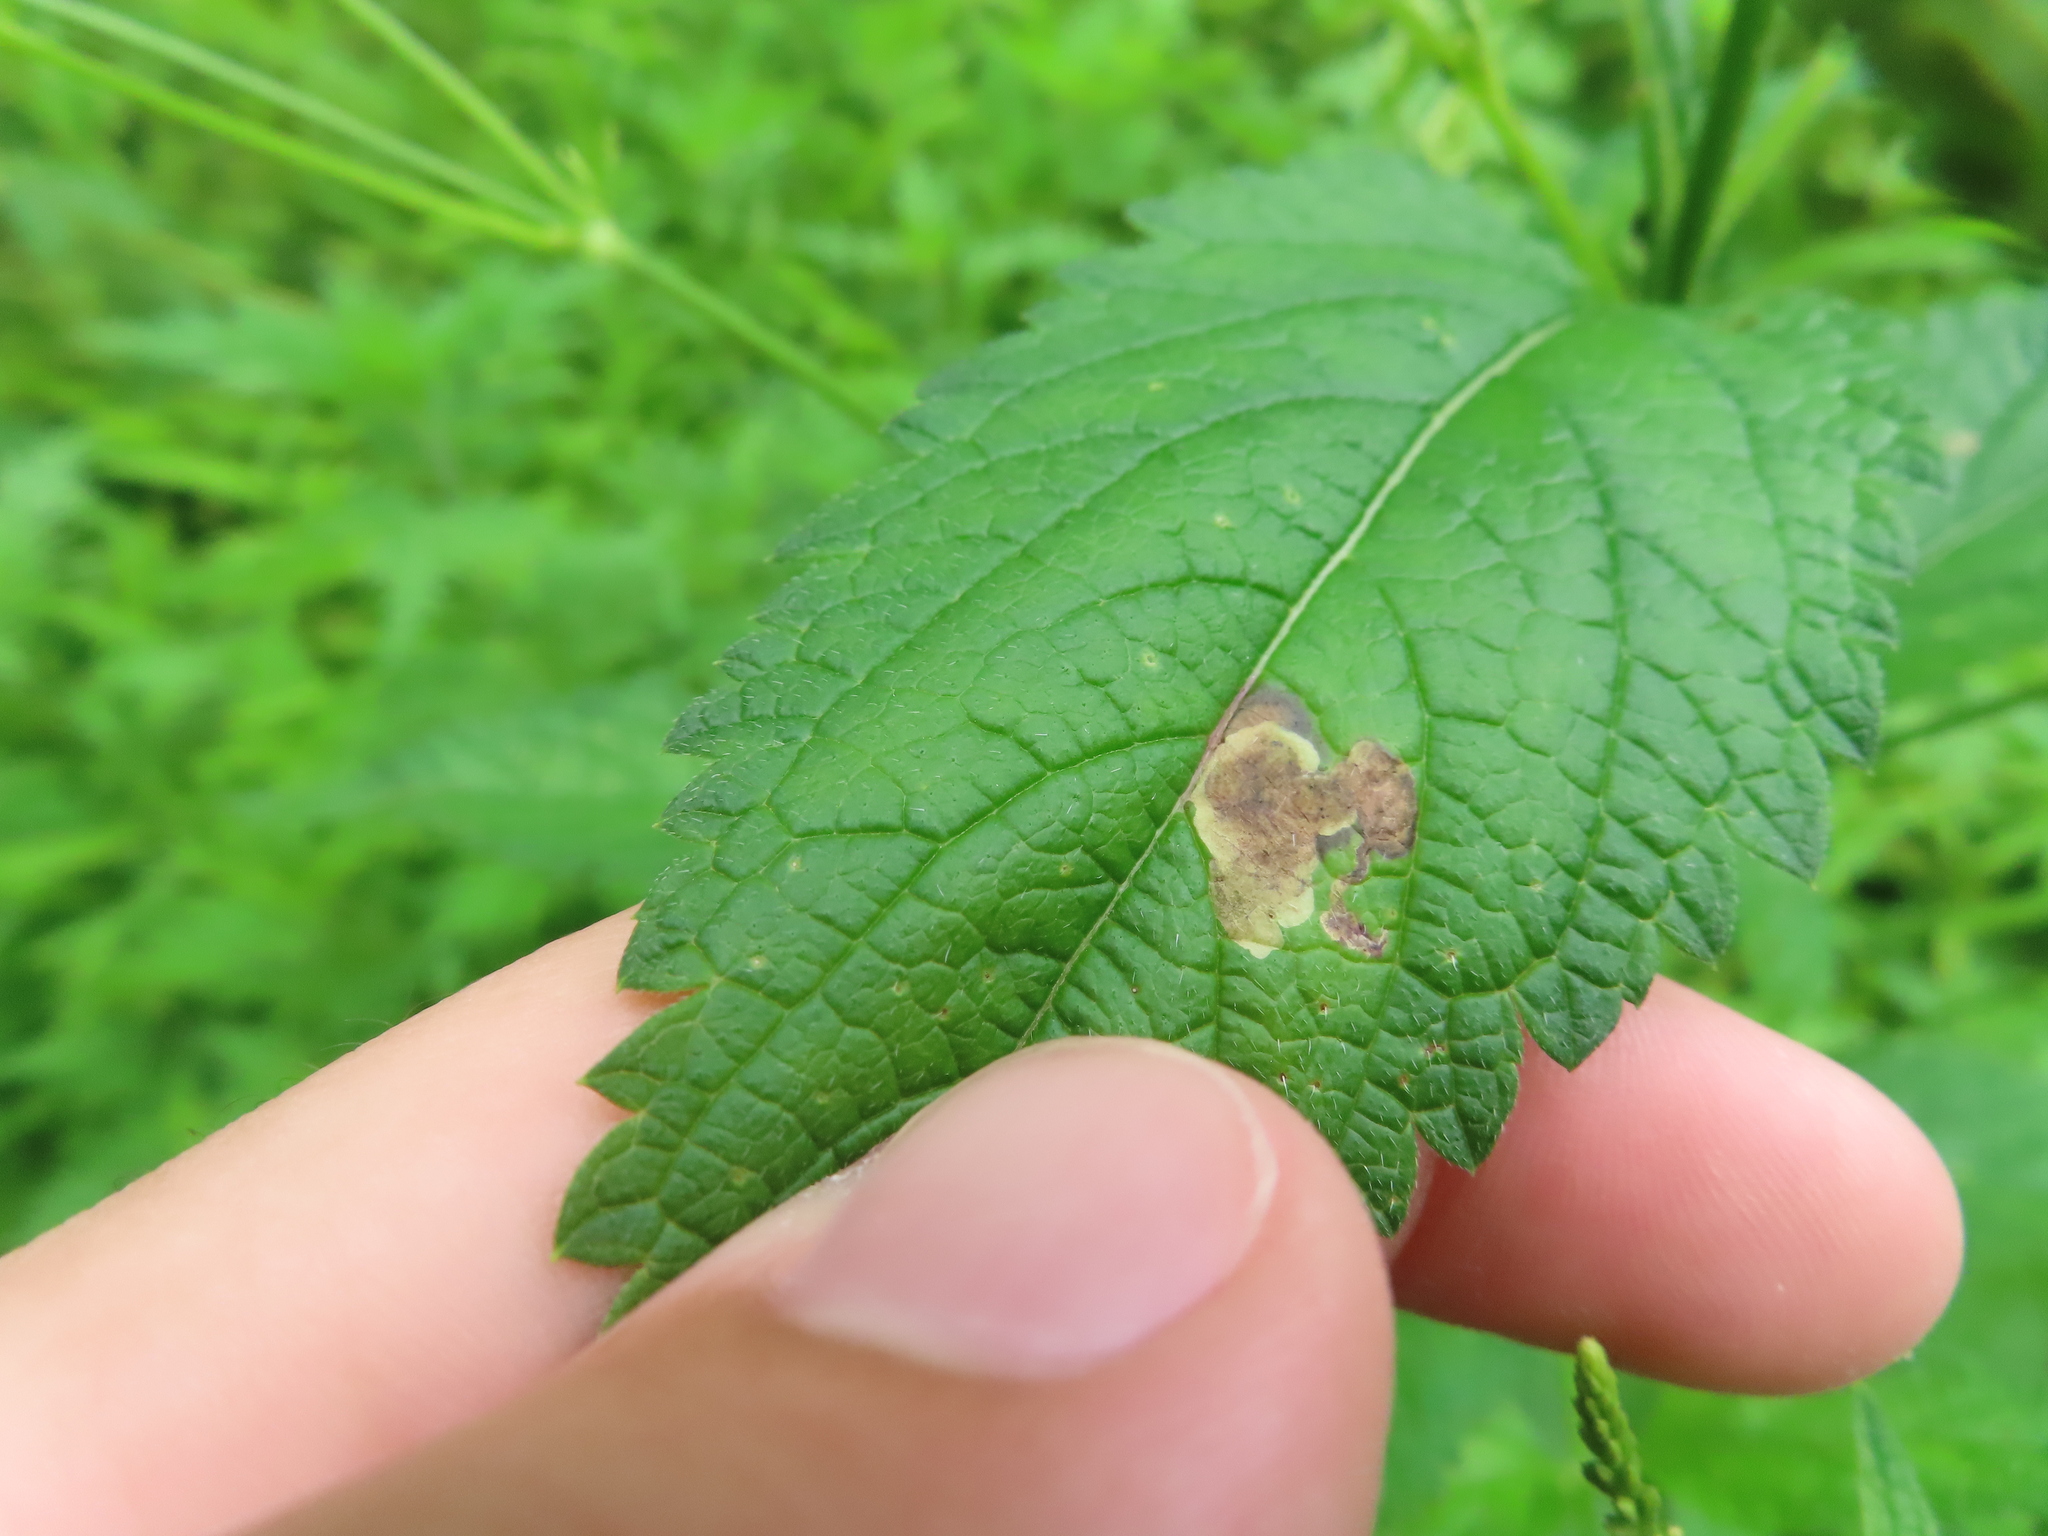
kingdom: Animalia
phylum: Arthropoda
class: Insecta
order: Diptera
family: Agromyzidae
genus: Calycomyza
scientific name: Calycomyza verbenae
